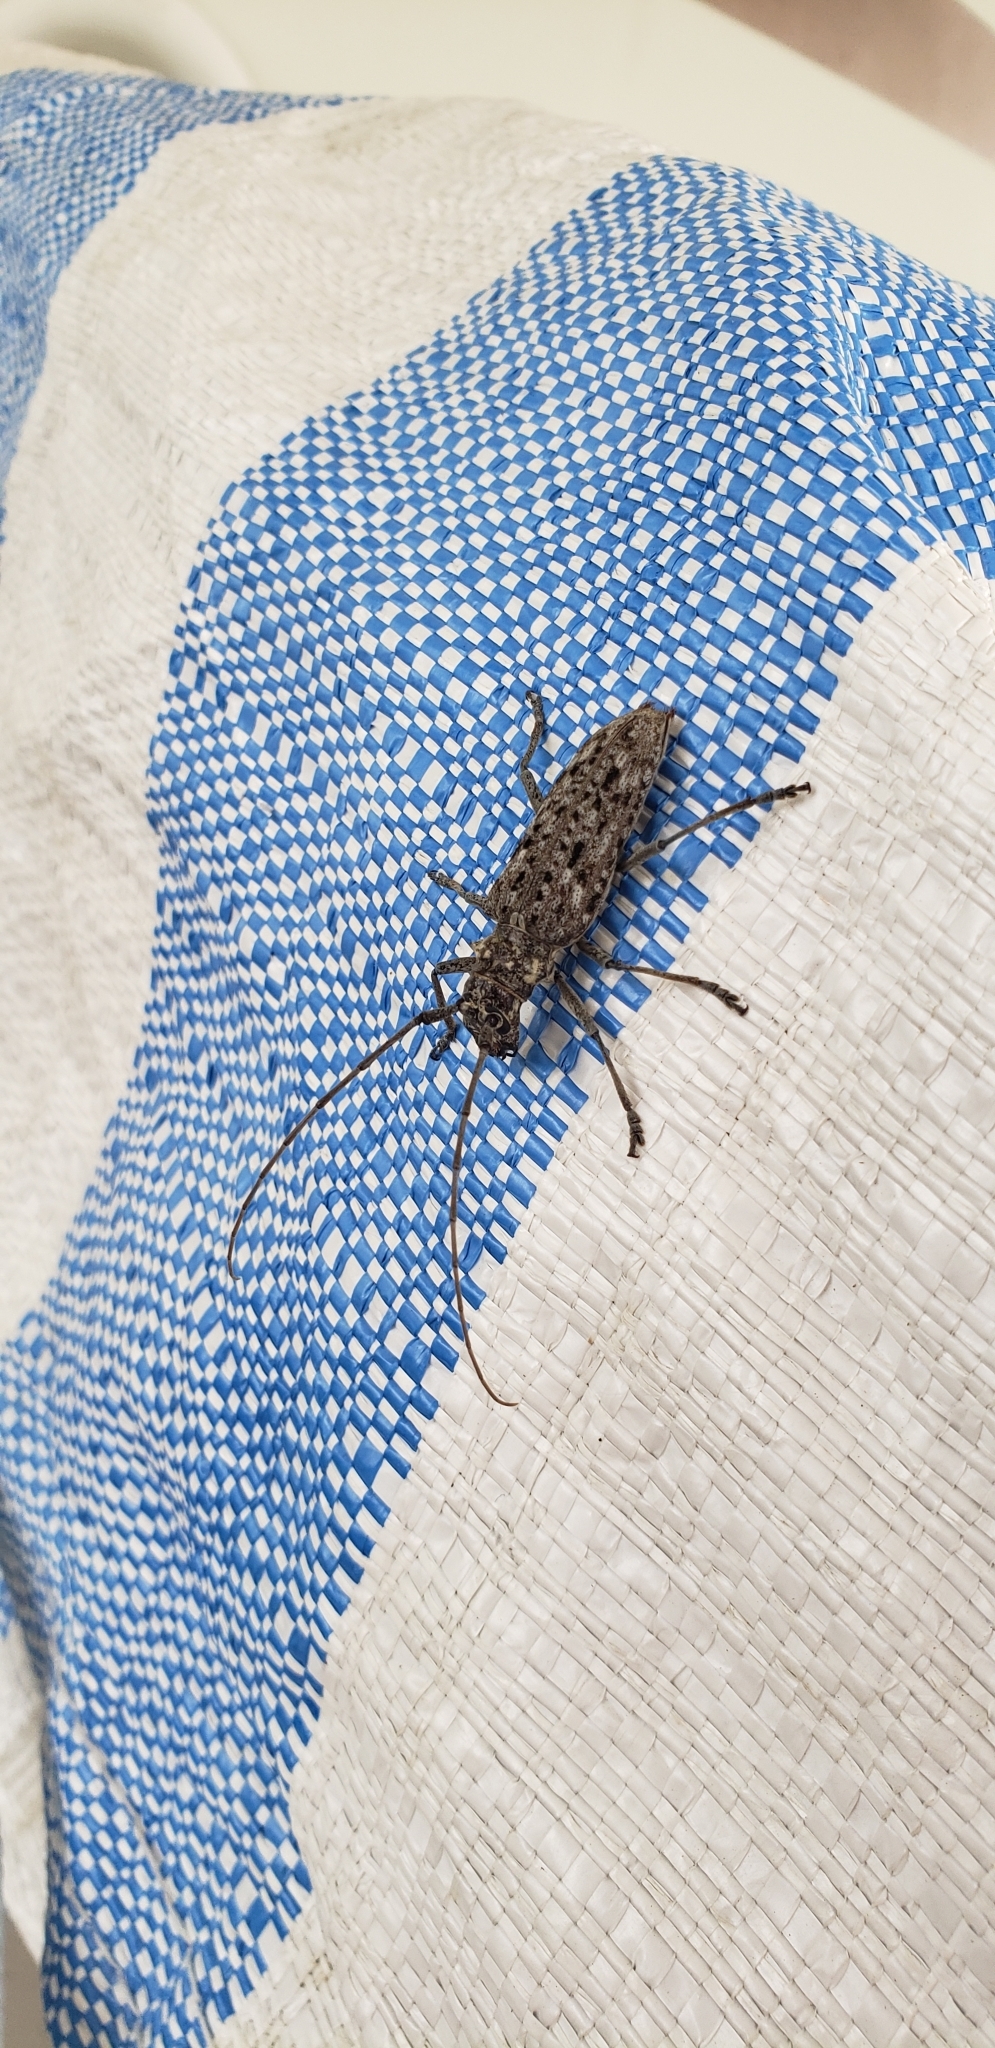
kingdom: Animalia
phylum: Arthropoda
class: Insecta
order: Coleoptera
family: Cerambycidae
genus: Monochamus
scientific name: Monochamus notatus
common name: Northeastern pine sawyer beetle
